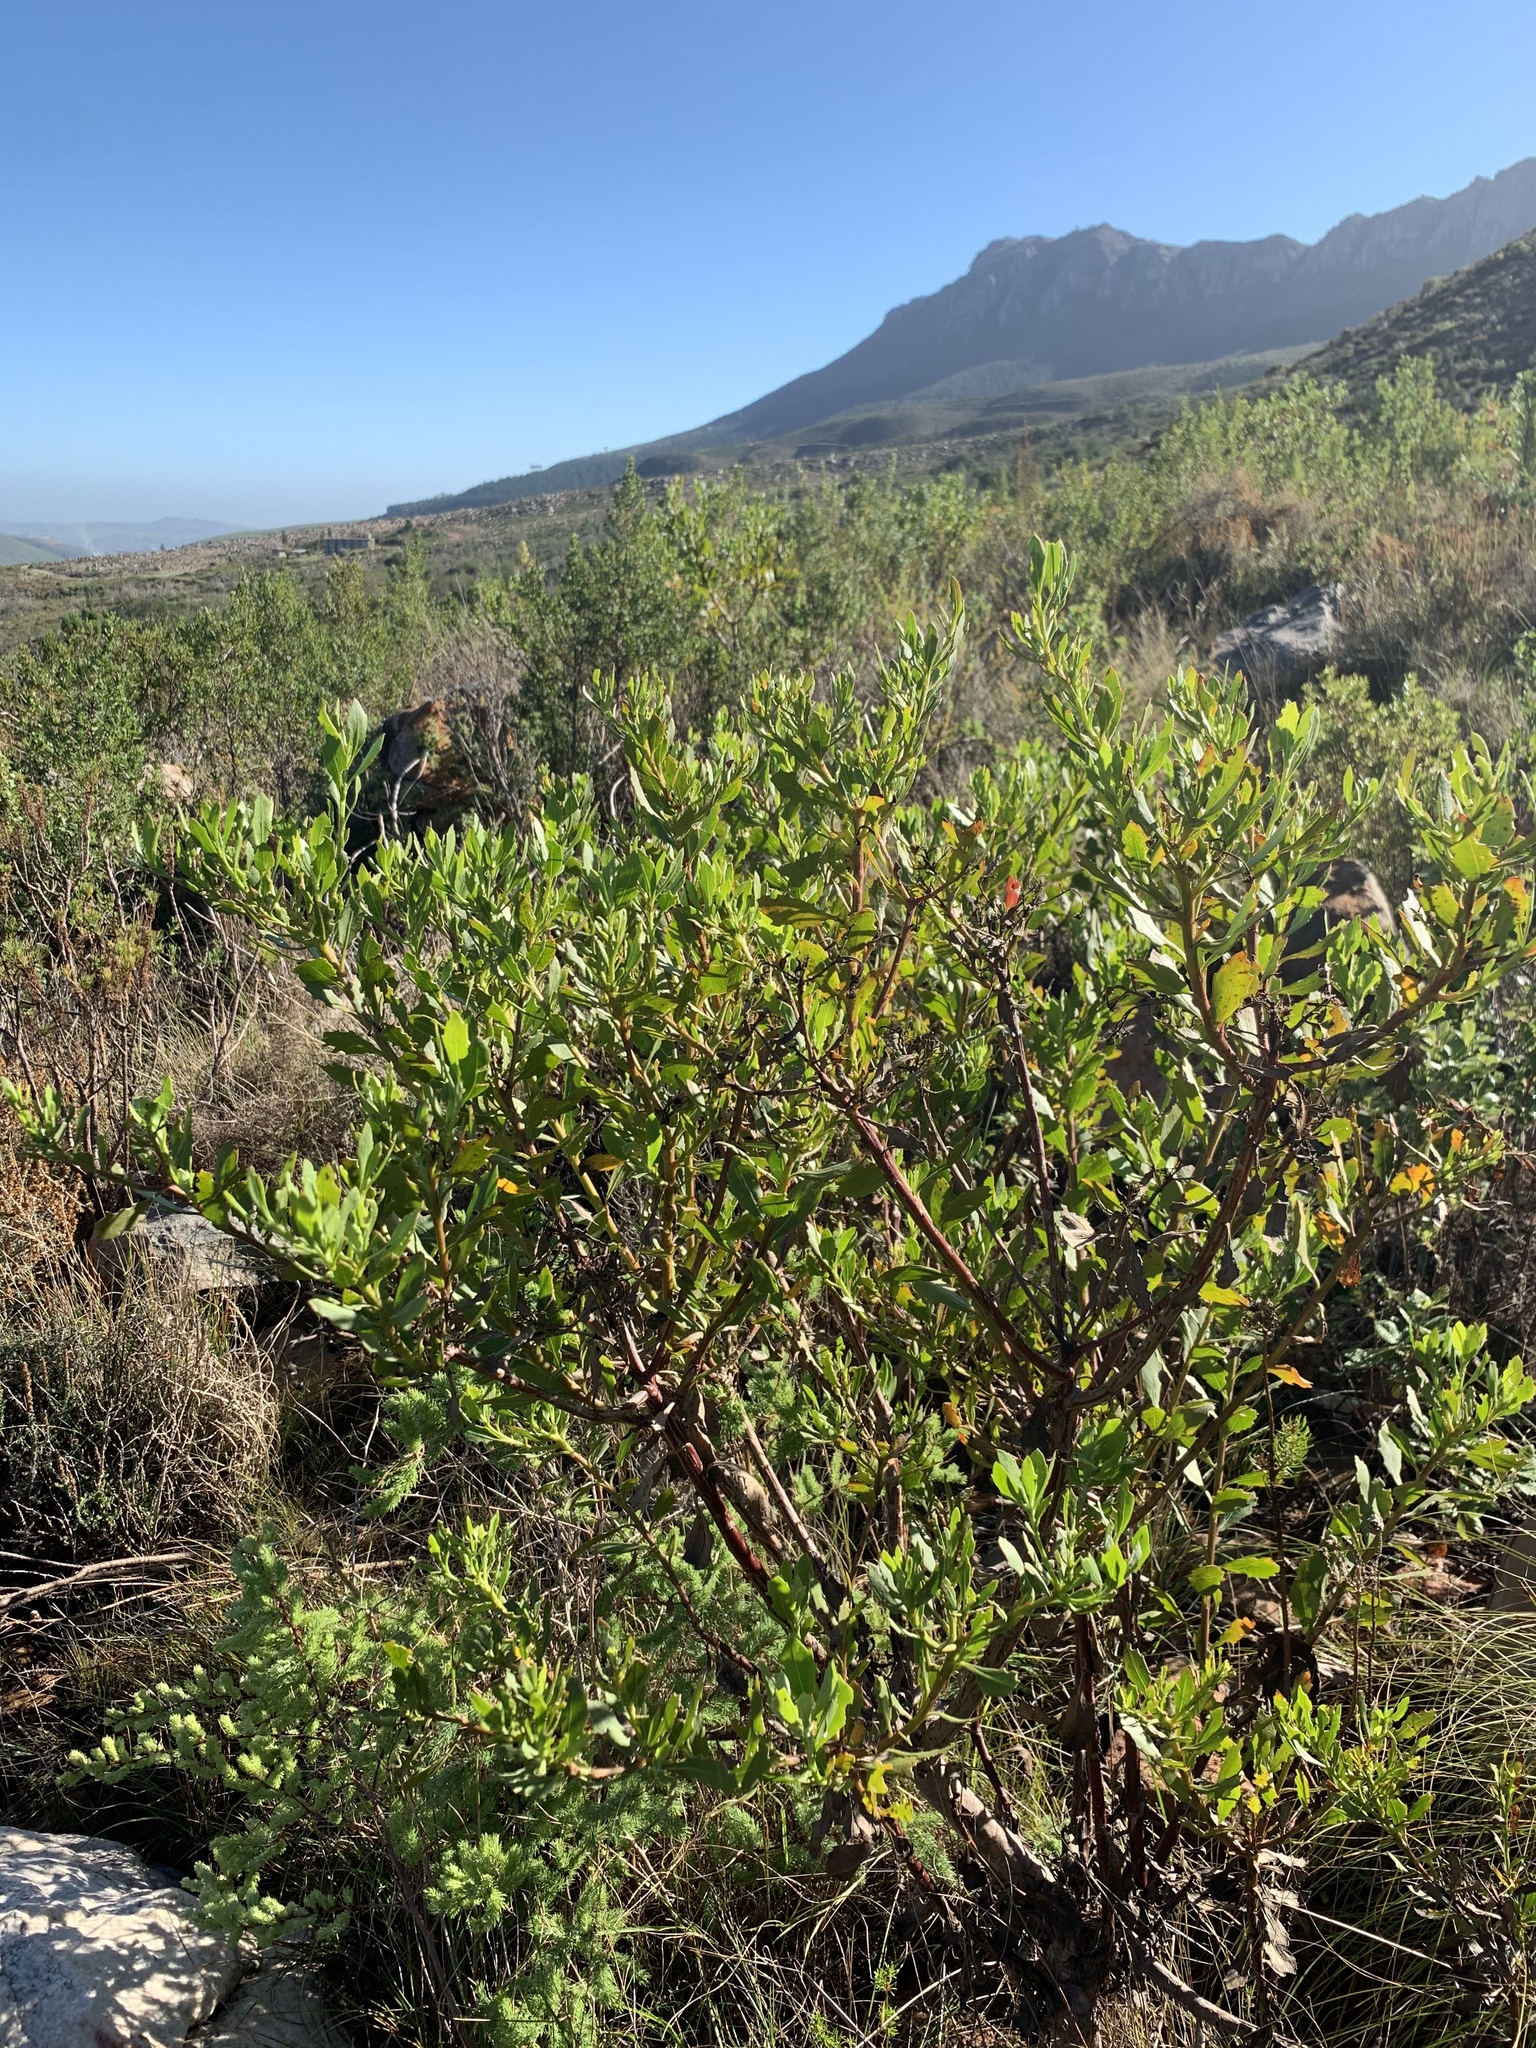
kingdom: Plantae
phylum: Tracheophyta
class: Magnoliopsida
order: Asterales
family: Asteraceae
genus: Osteospermum
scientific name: Osteospermum moniliferum
